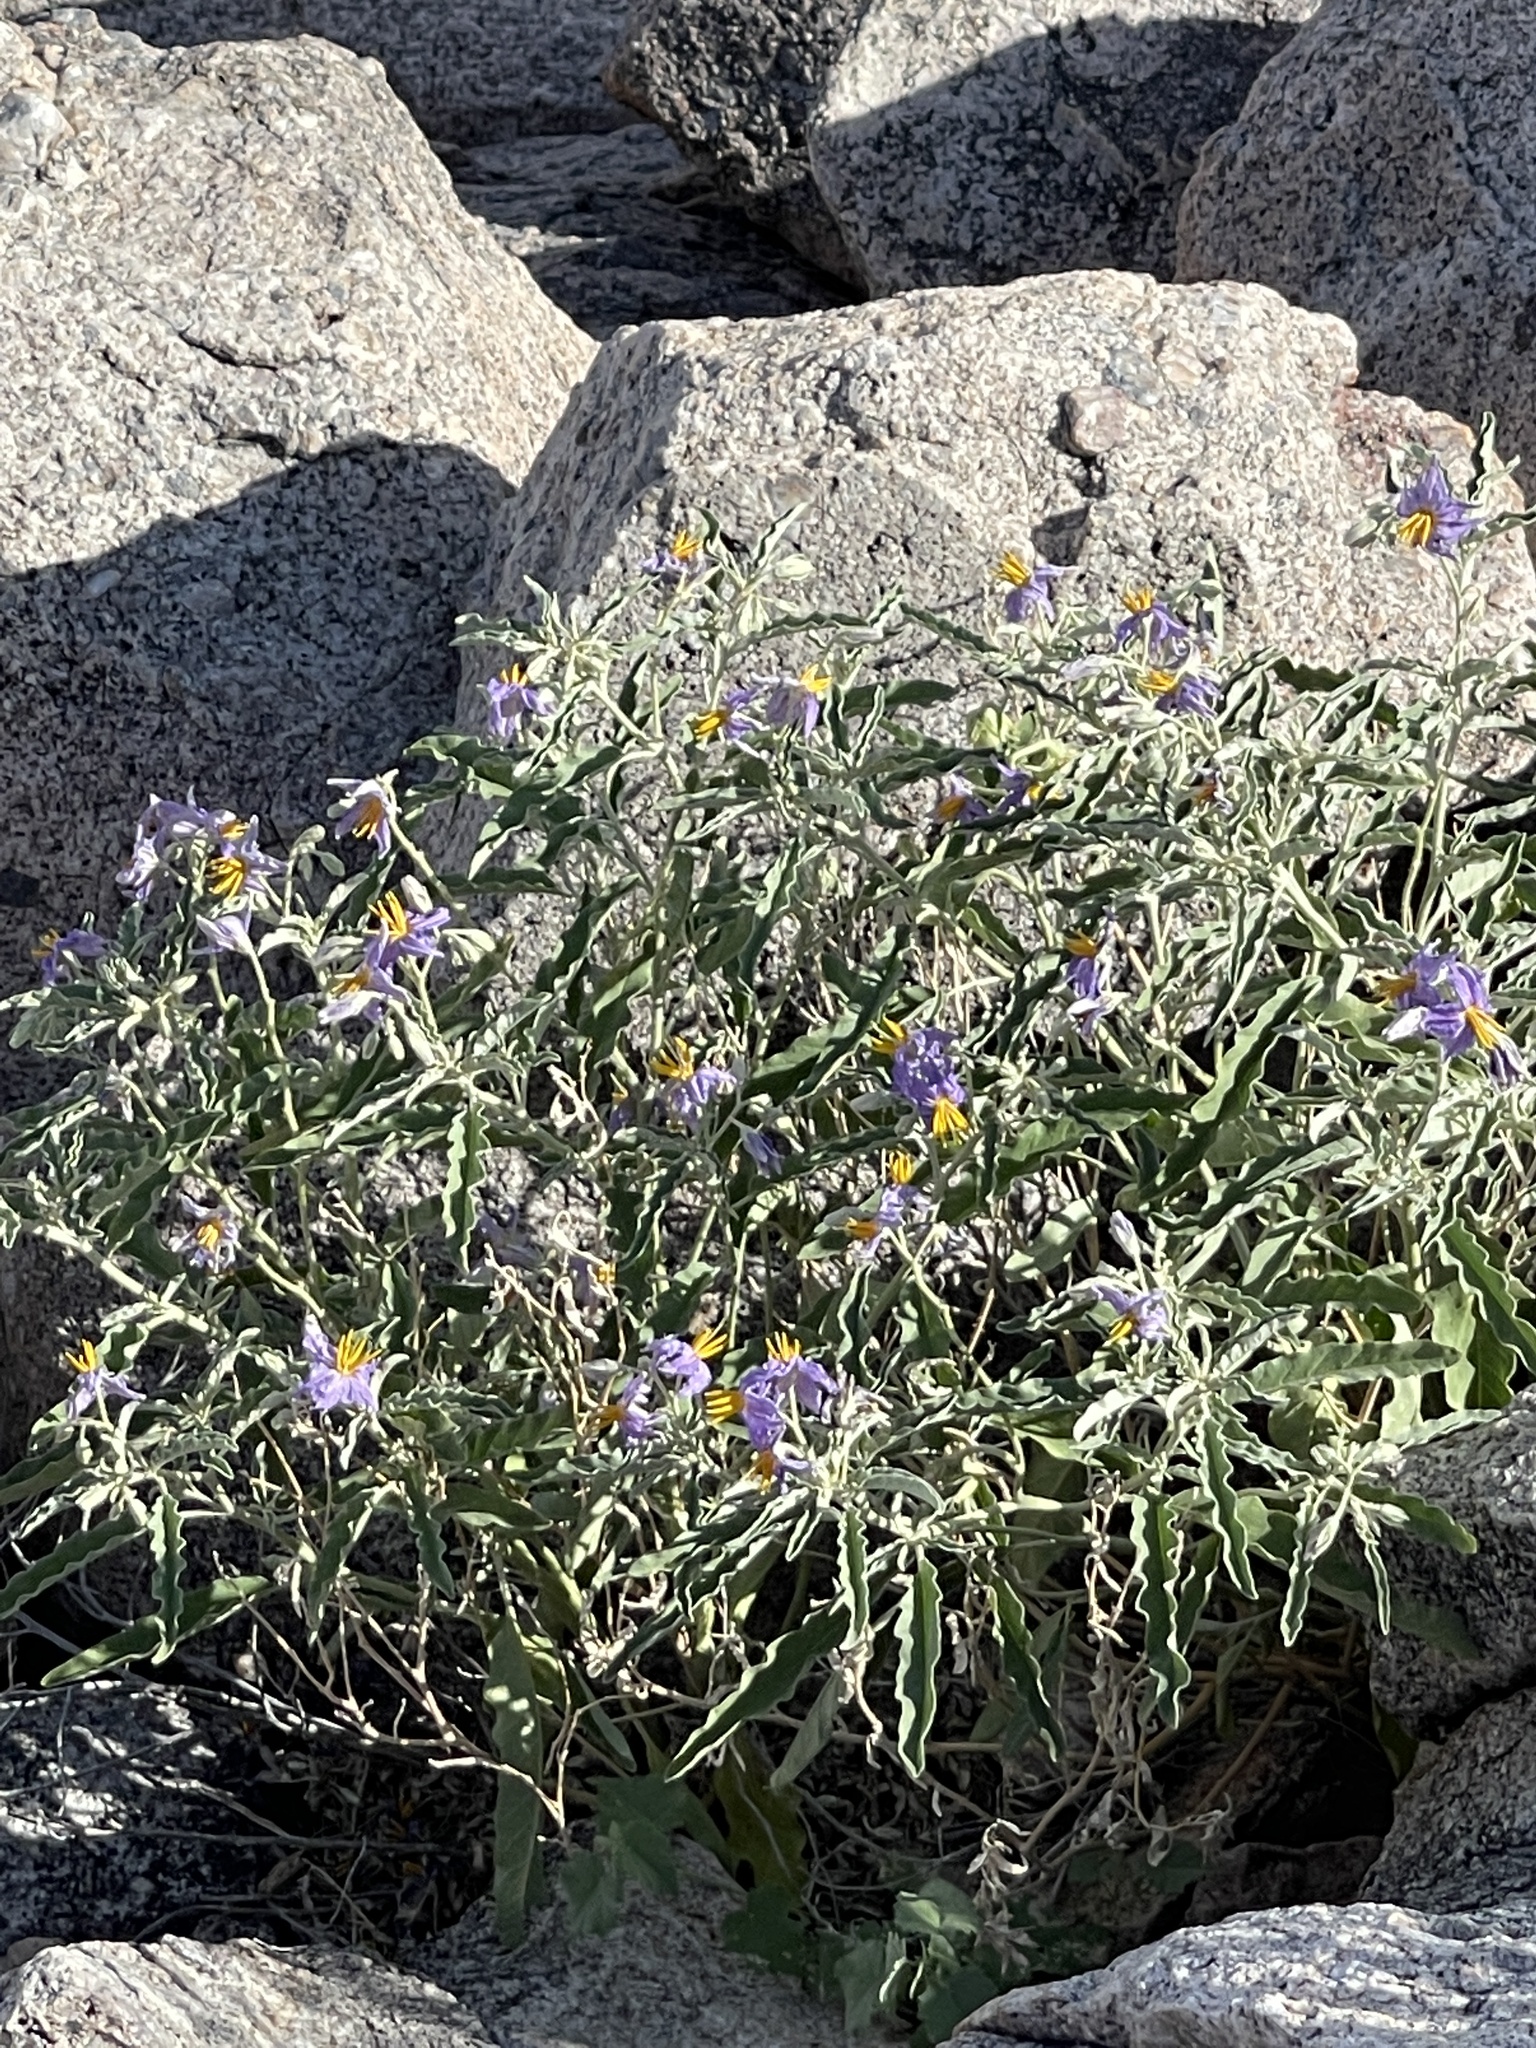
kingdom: Plantae
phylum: Tracheophyta
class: Magnoliopsida
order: Solanales
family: Solanaceae
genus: Solanum
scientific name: Solanum elaeagnifolium
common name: Silverleaf nightshade
